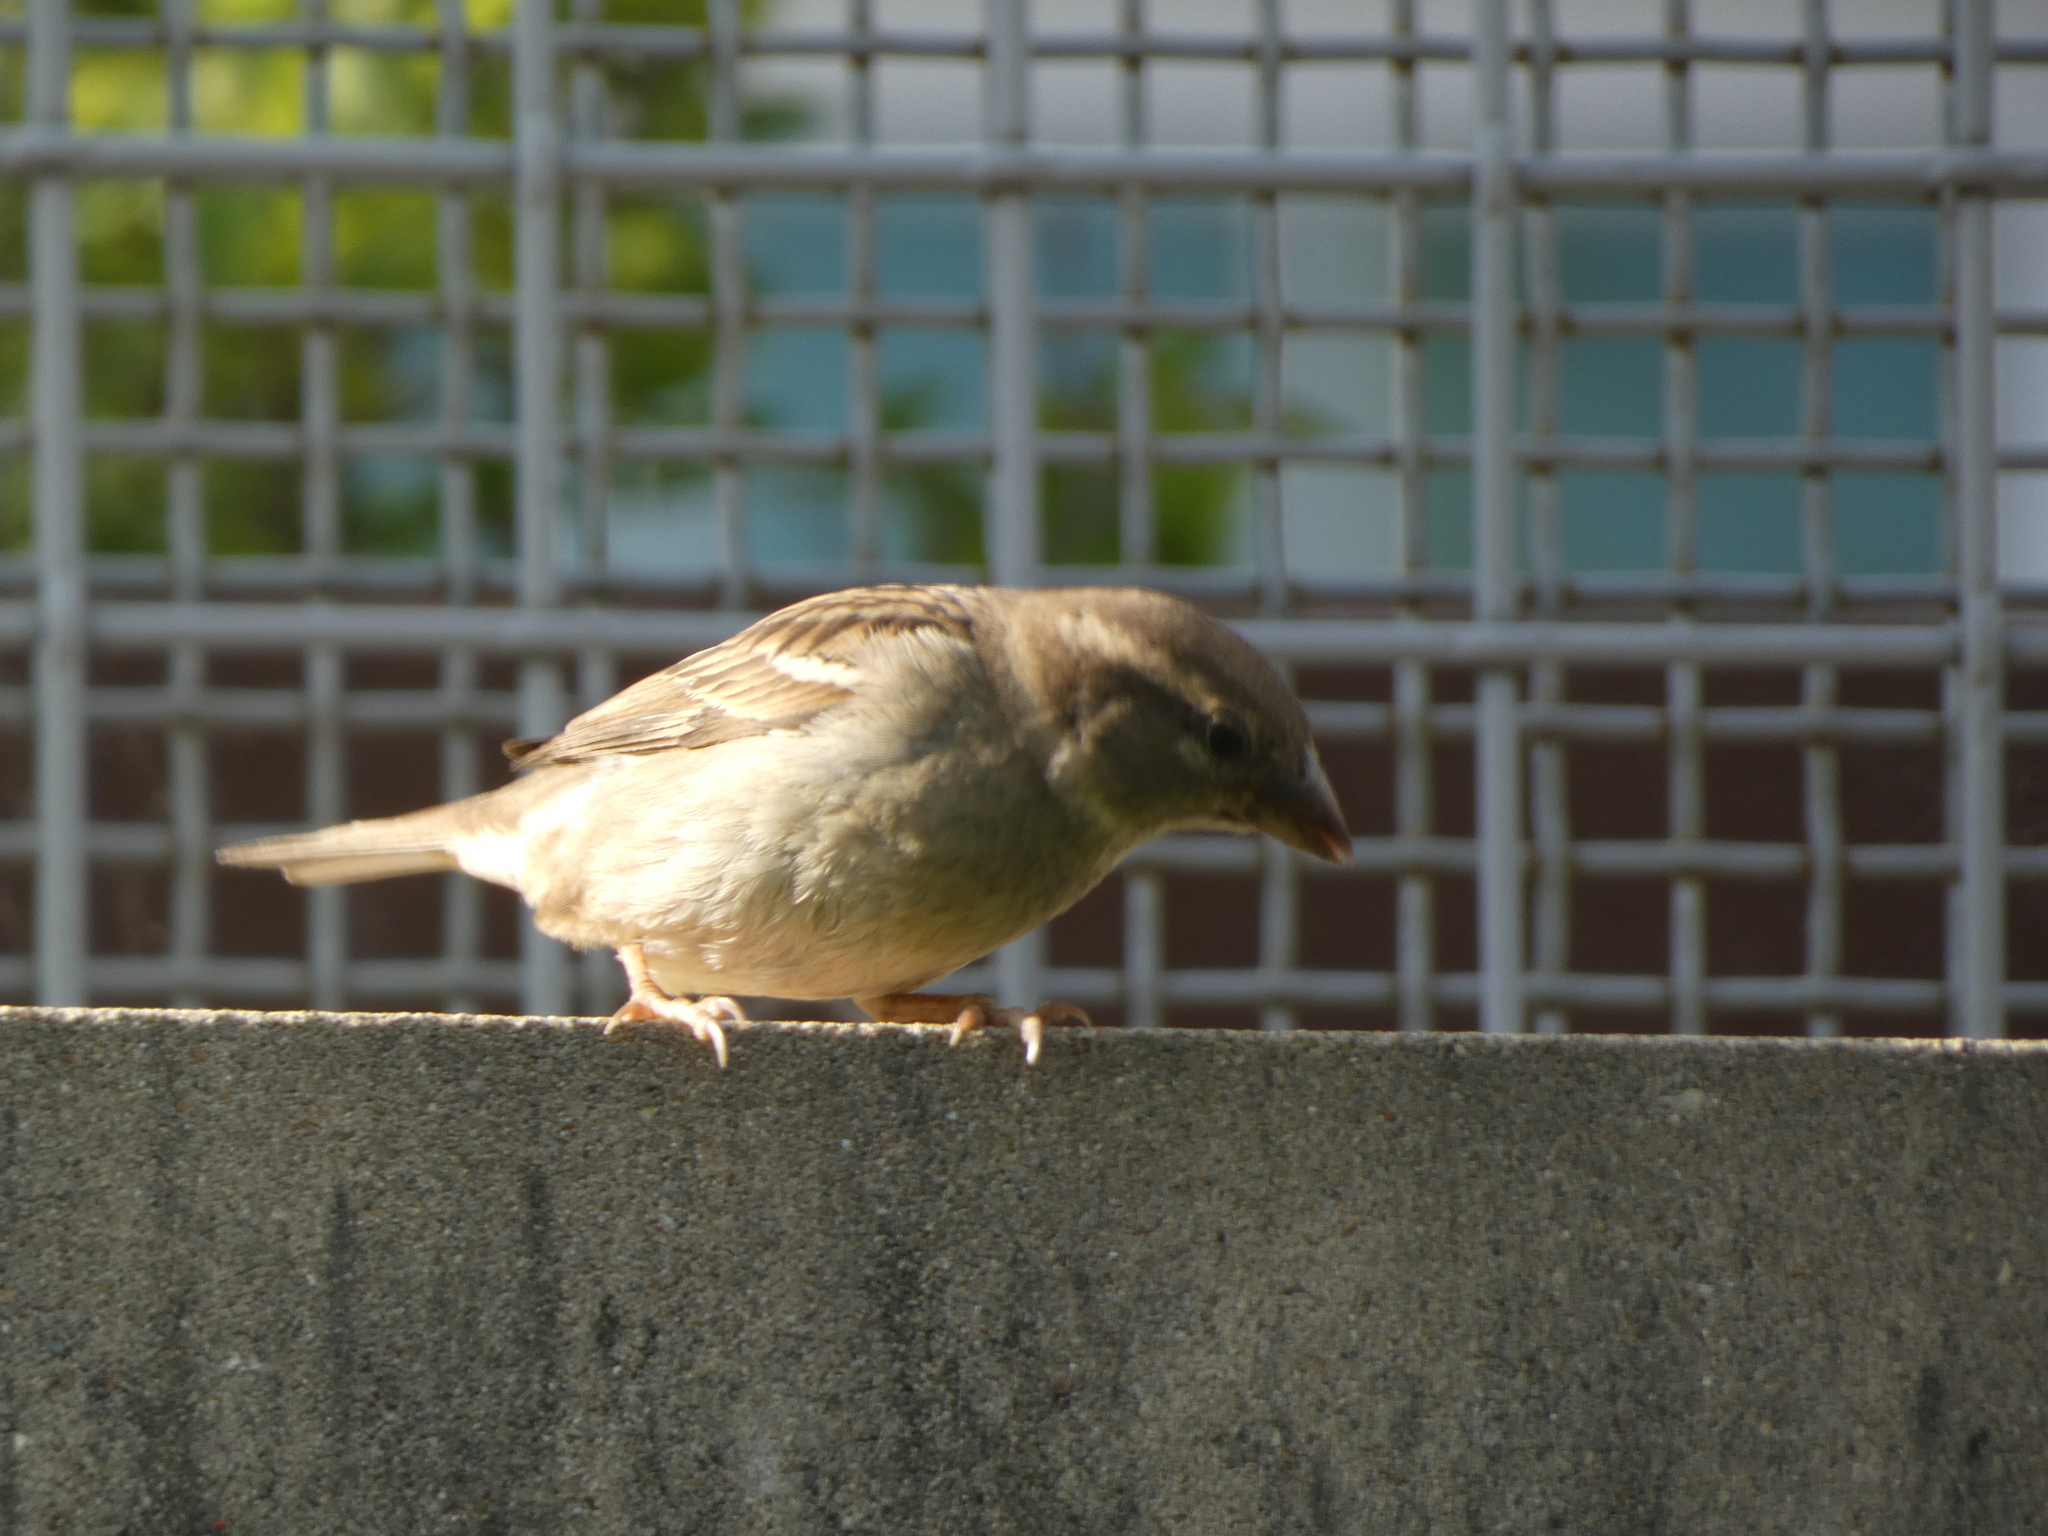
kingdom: Animalia
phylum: Chordata
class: Aves
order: Passeriformes
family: Passeridae
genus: Passer
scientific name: Passer domesticus
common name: House sparrow
